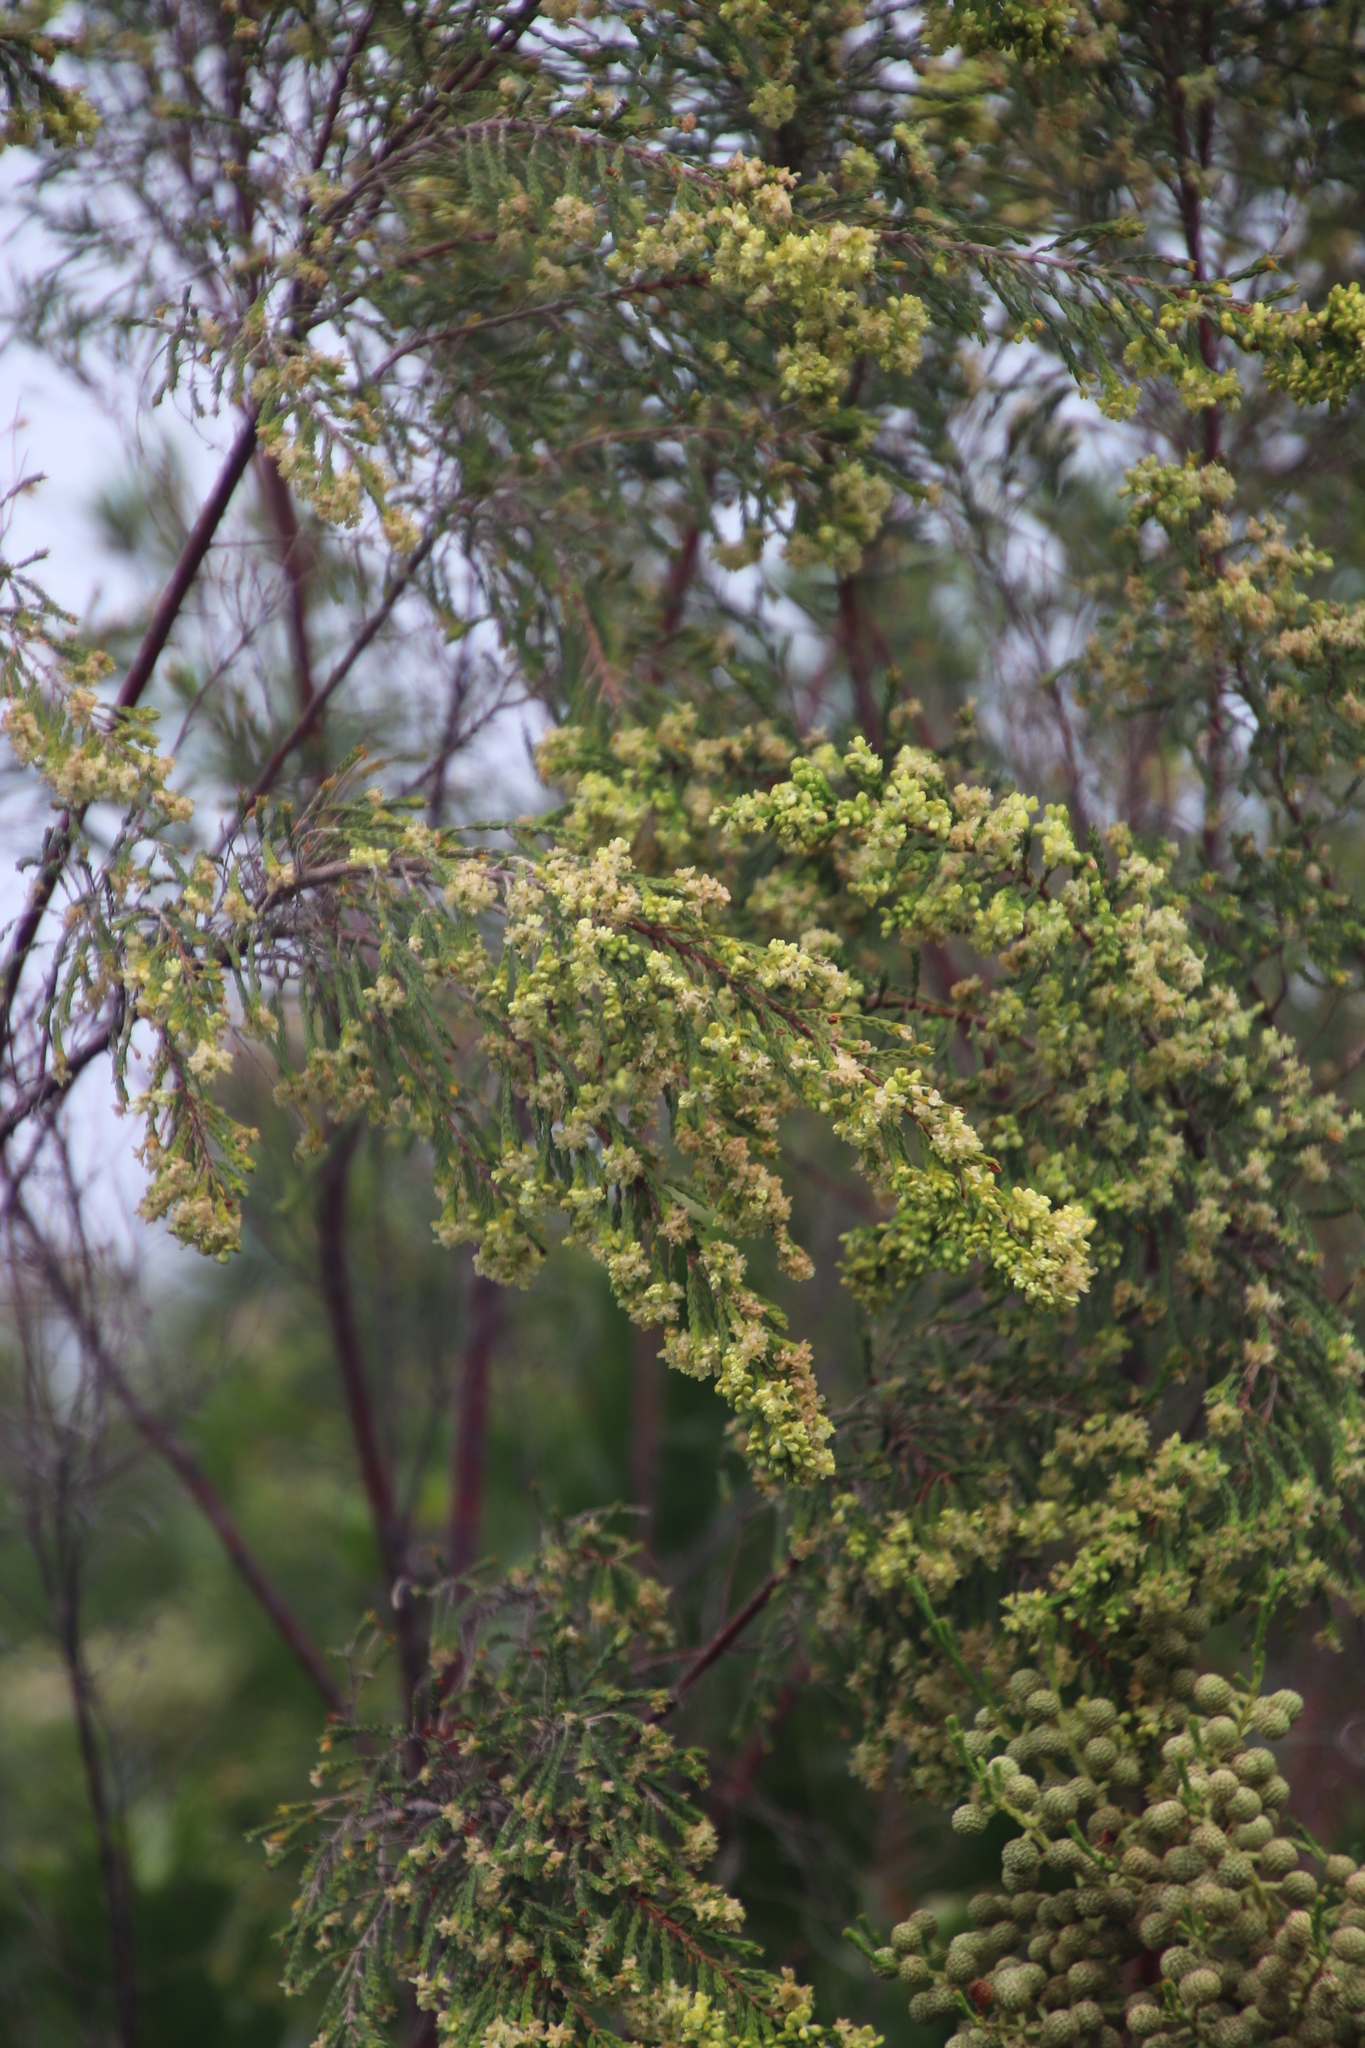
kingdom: Plantae
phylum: Tracheophyta
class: Magnoliopsida
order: Malvales
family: Thymelaeaceae
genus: Passerina
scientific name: Passerina corymbosa
